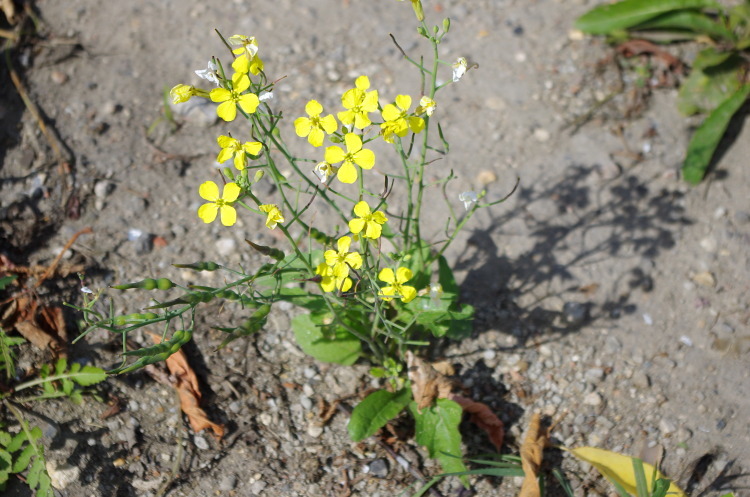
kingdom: Plantae
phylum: Tracheophyta
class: Magnoliopsida
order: Brassicales
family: Brassicaceae
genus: Raphanus
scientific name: Raphanus raphanistrum
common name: Wild radish
